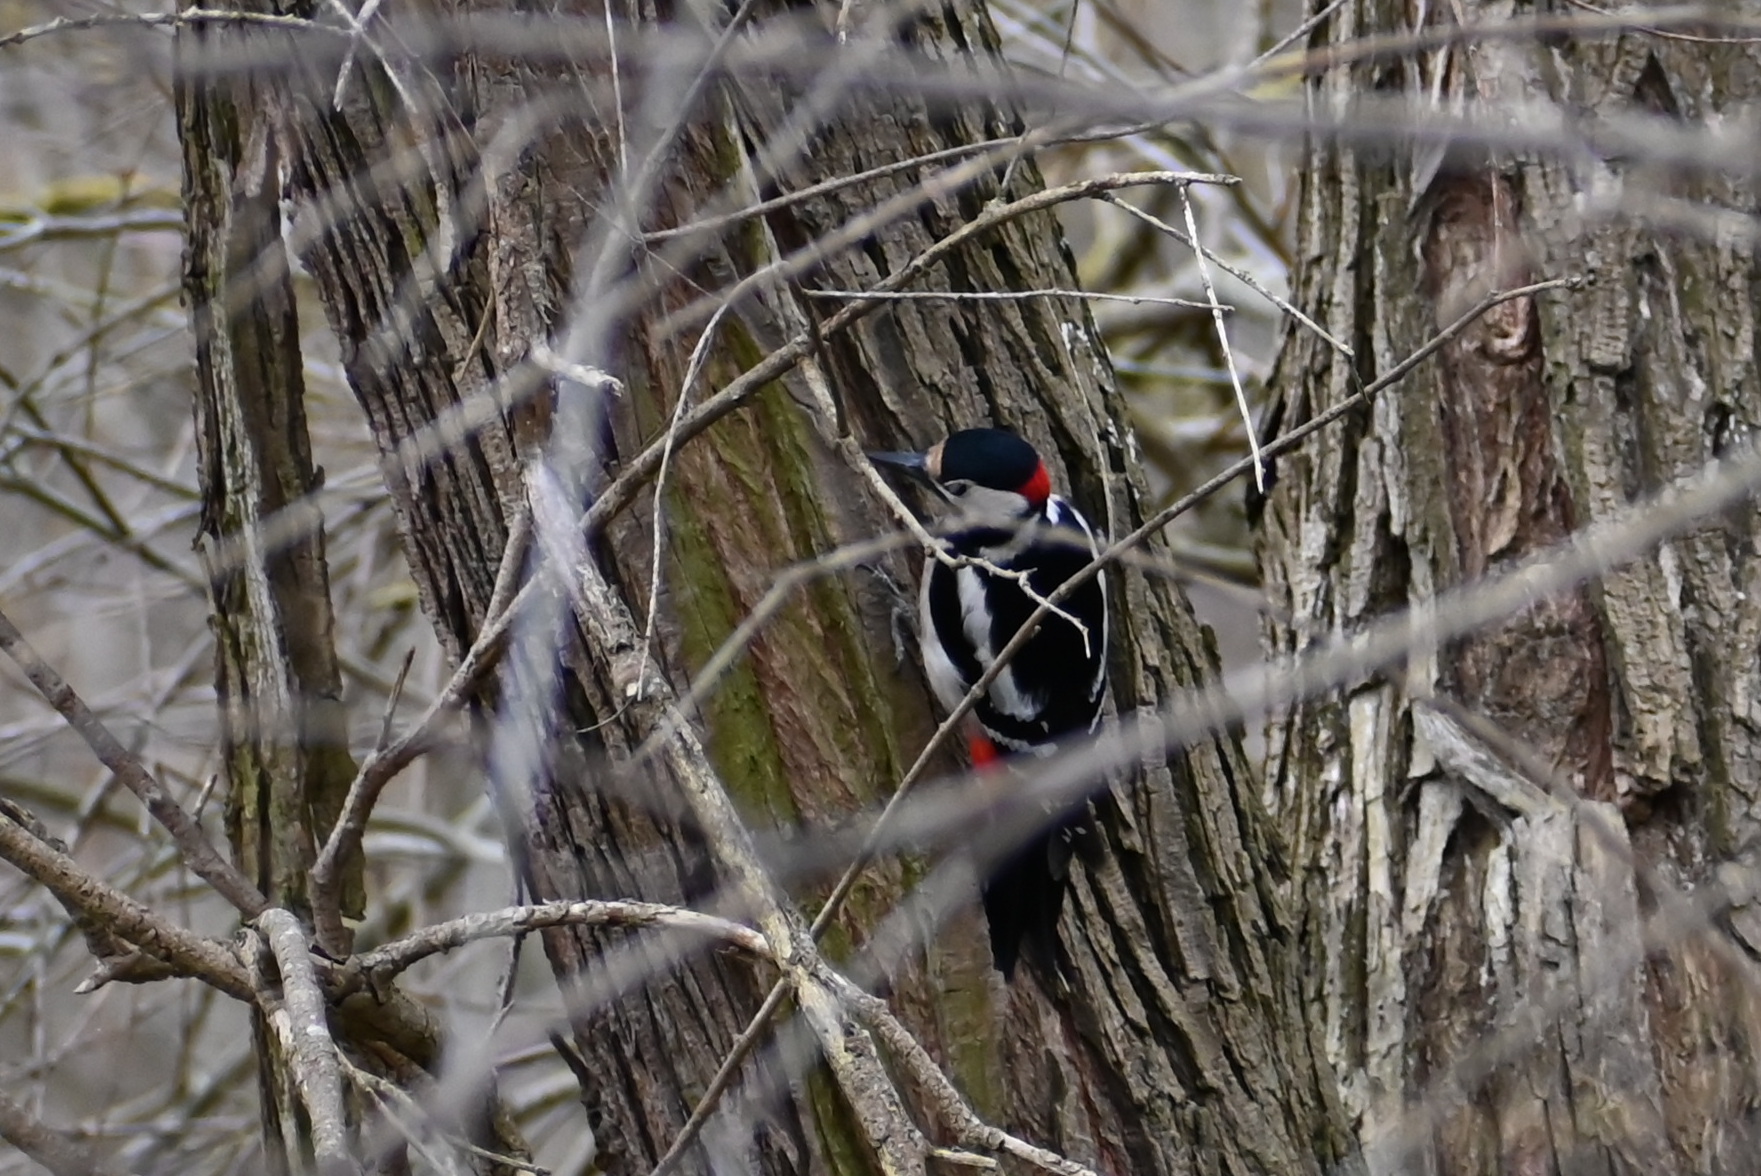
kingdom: Animalia
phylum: Chordata
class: Aves
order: Piciformes
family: Picidae
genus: Dendrocopos
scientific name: Dendrocopos major
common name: Great spotted woodpecker
